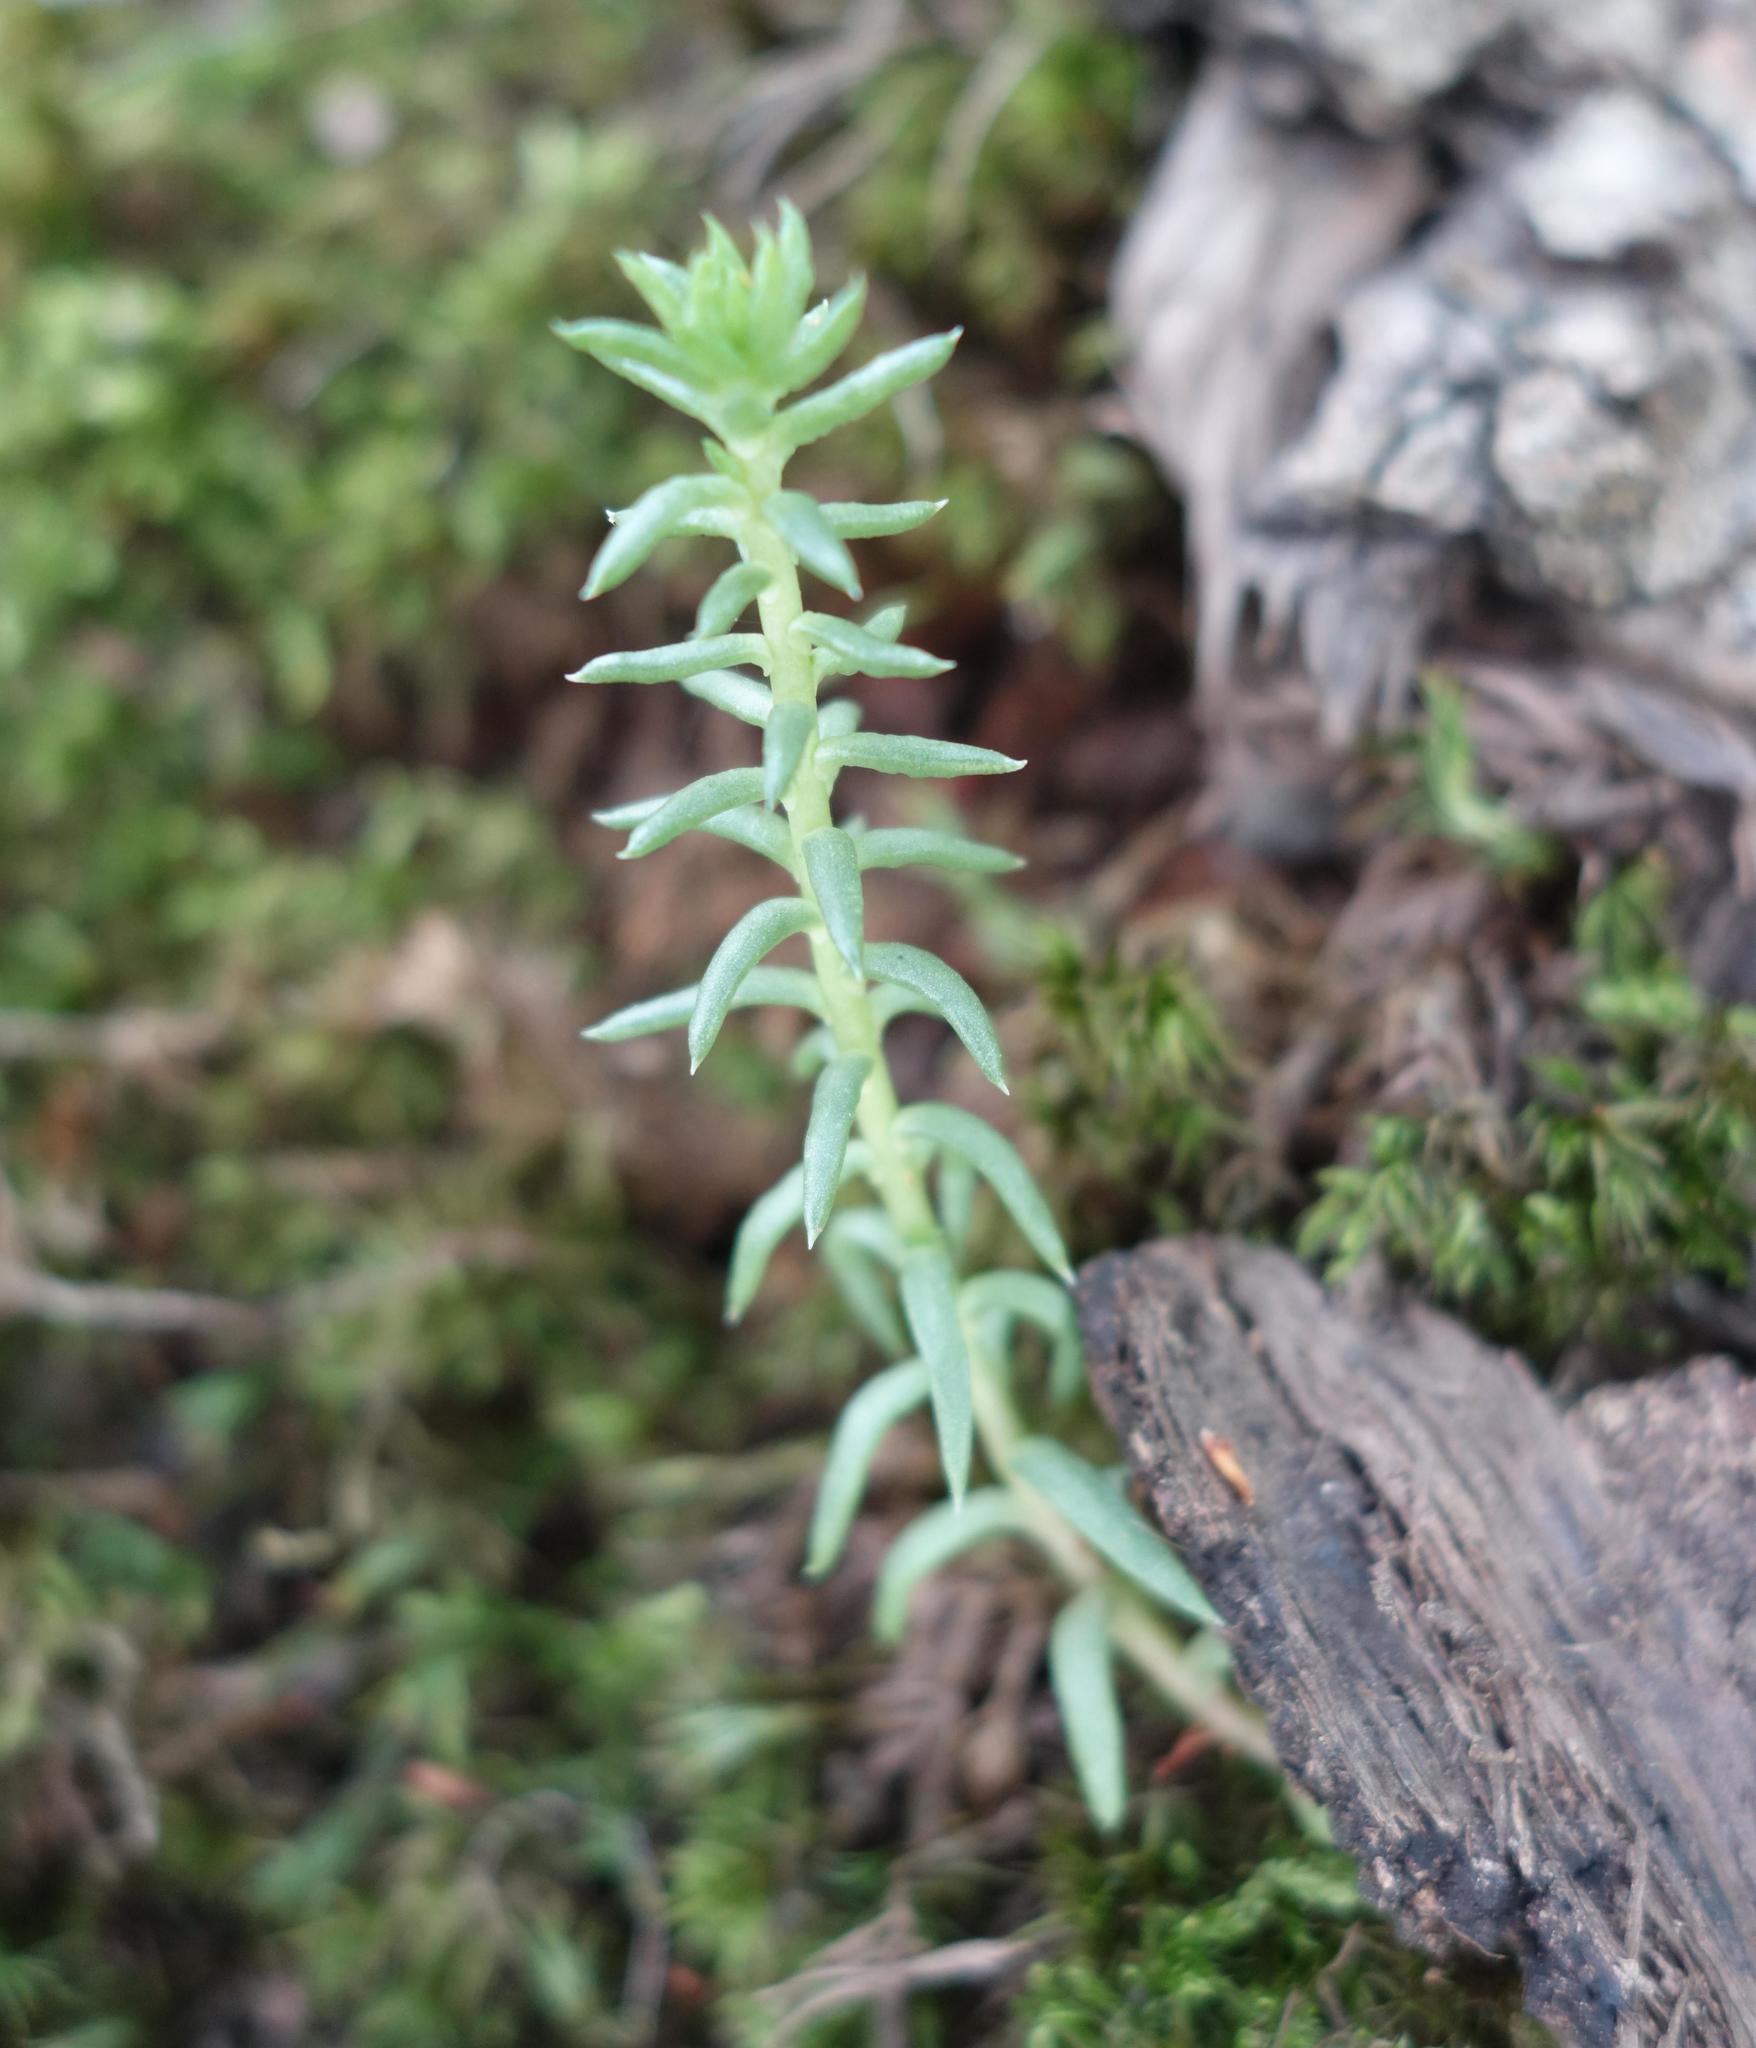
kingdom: Plantae
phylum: Tracheophyta
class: Magnoliopsida
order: Saxifragales
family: Crassulaceae
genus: Petrosedum
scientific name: Petrosedum rupestre
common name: Jenny's stonecrop
